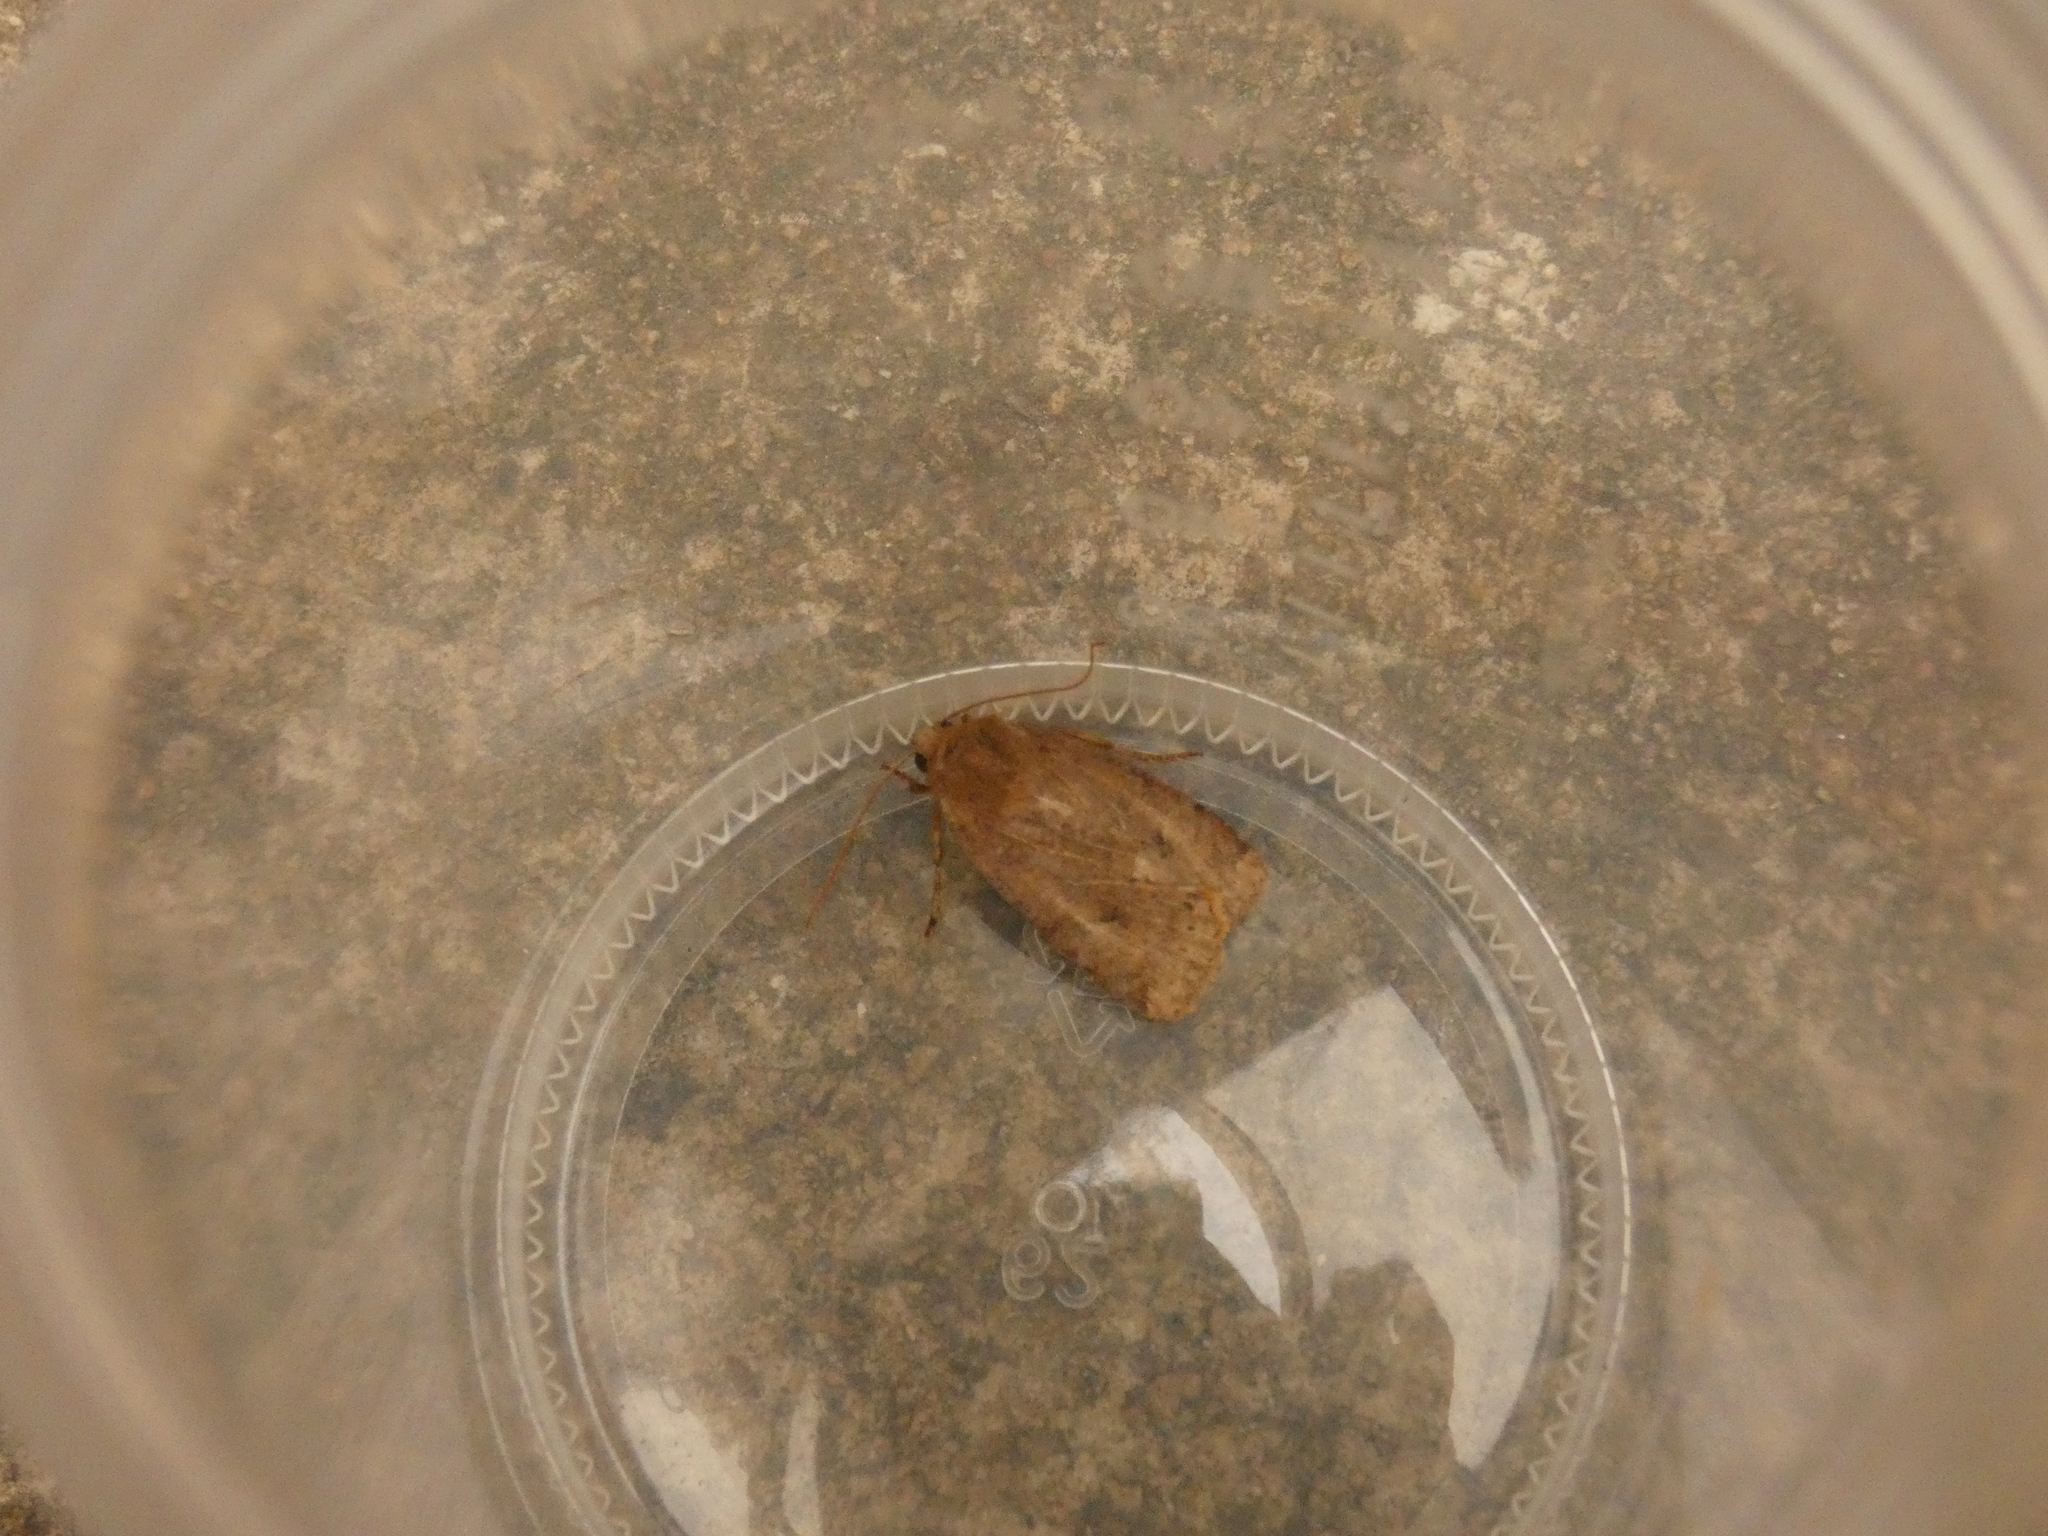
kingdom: Animalia
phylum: Arthropoda
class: Insecta
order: Lepidoptera
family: Noctuidae
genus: Conistra
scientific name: Conistra vaccinii
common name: Chestnut
